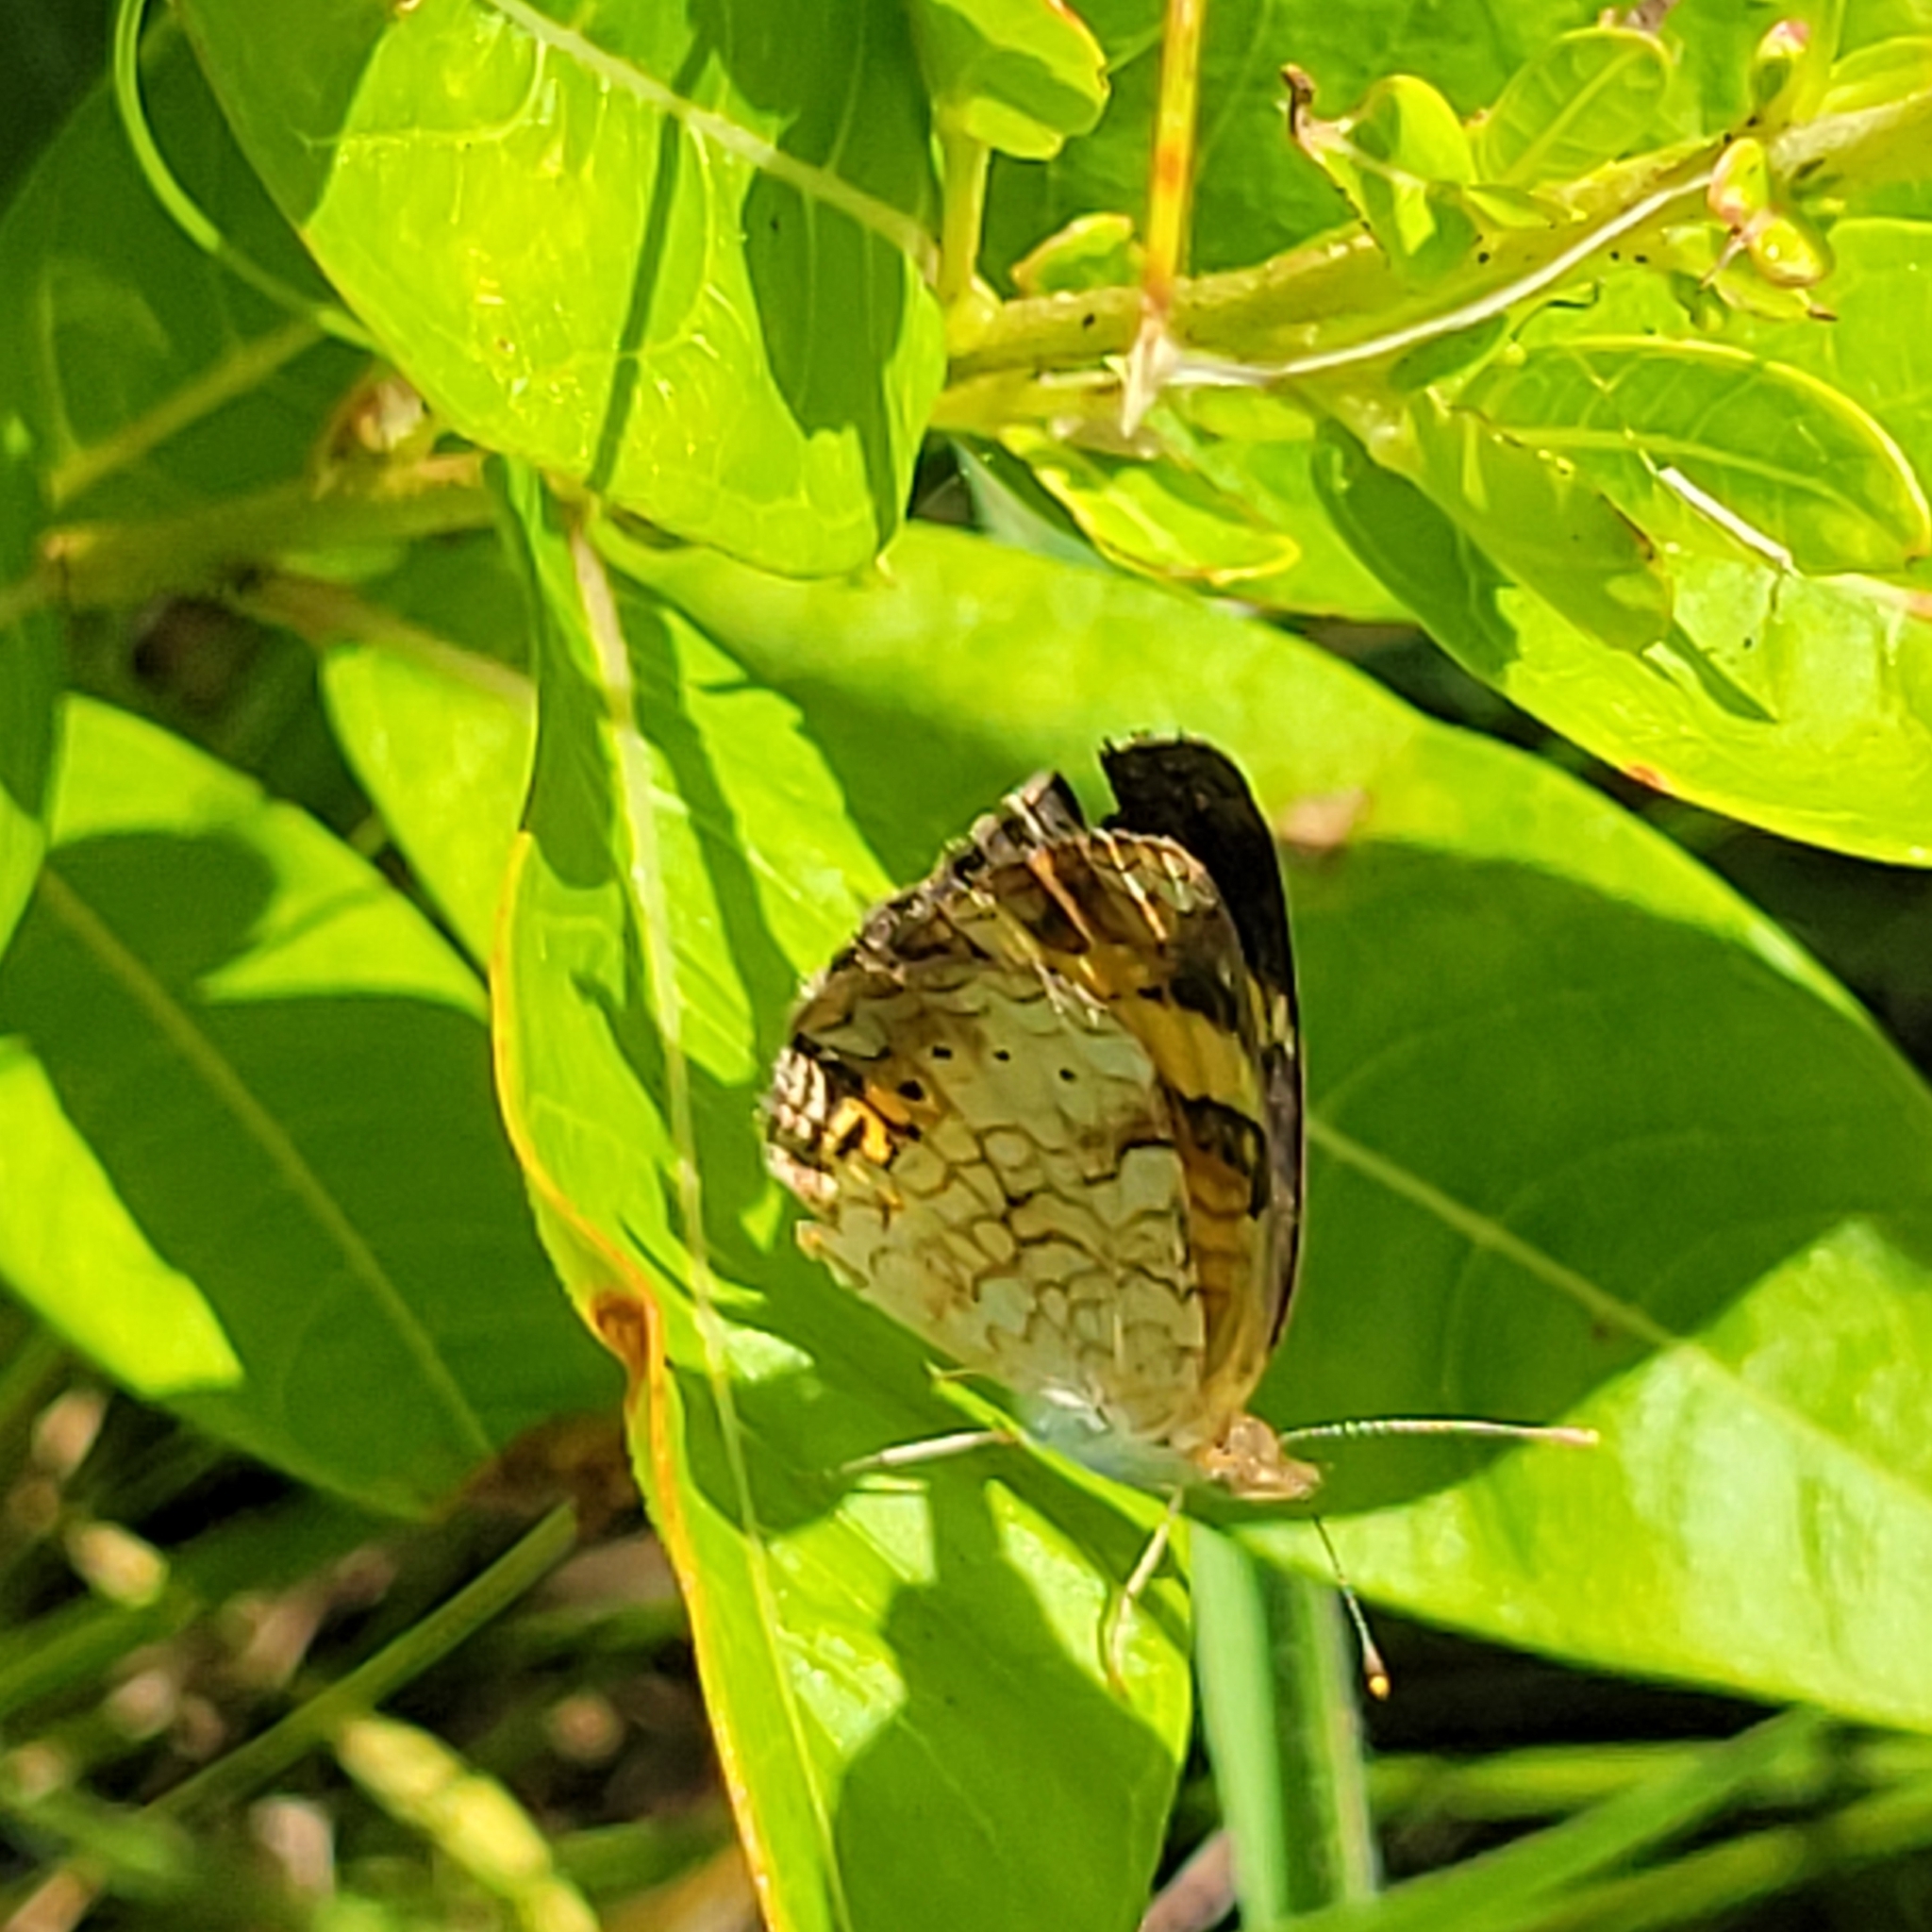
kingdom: Animalia
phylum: Arthropoda
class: Insecta
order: Lepidoptera
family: Nymphalidae
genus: Phyciodes
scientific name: Phyciodes tharos
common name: Pearl crescent
